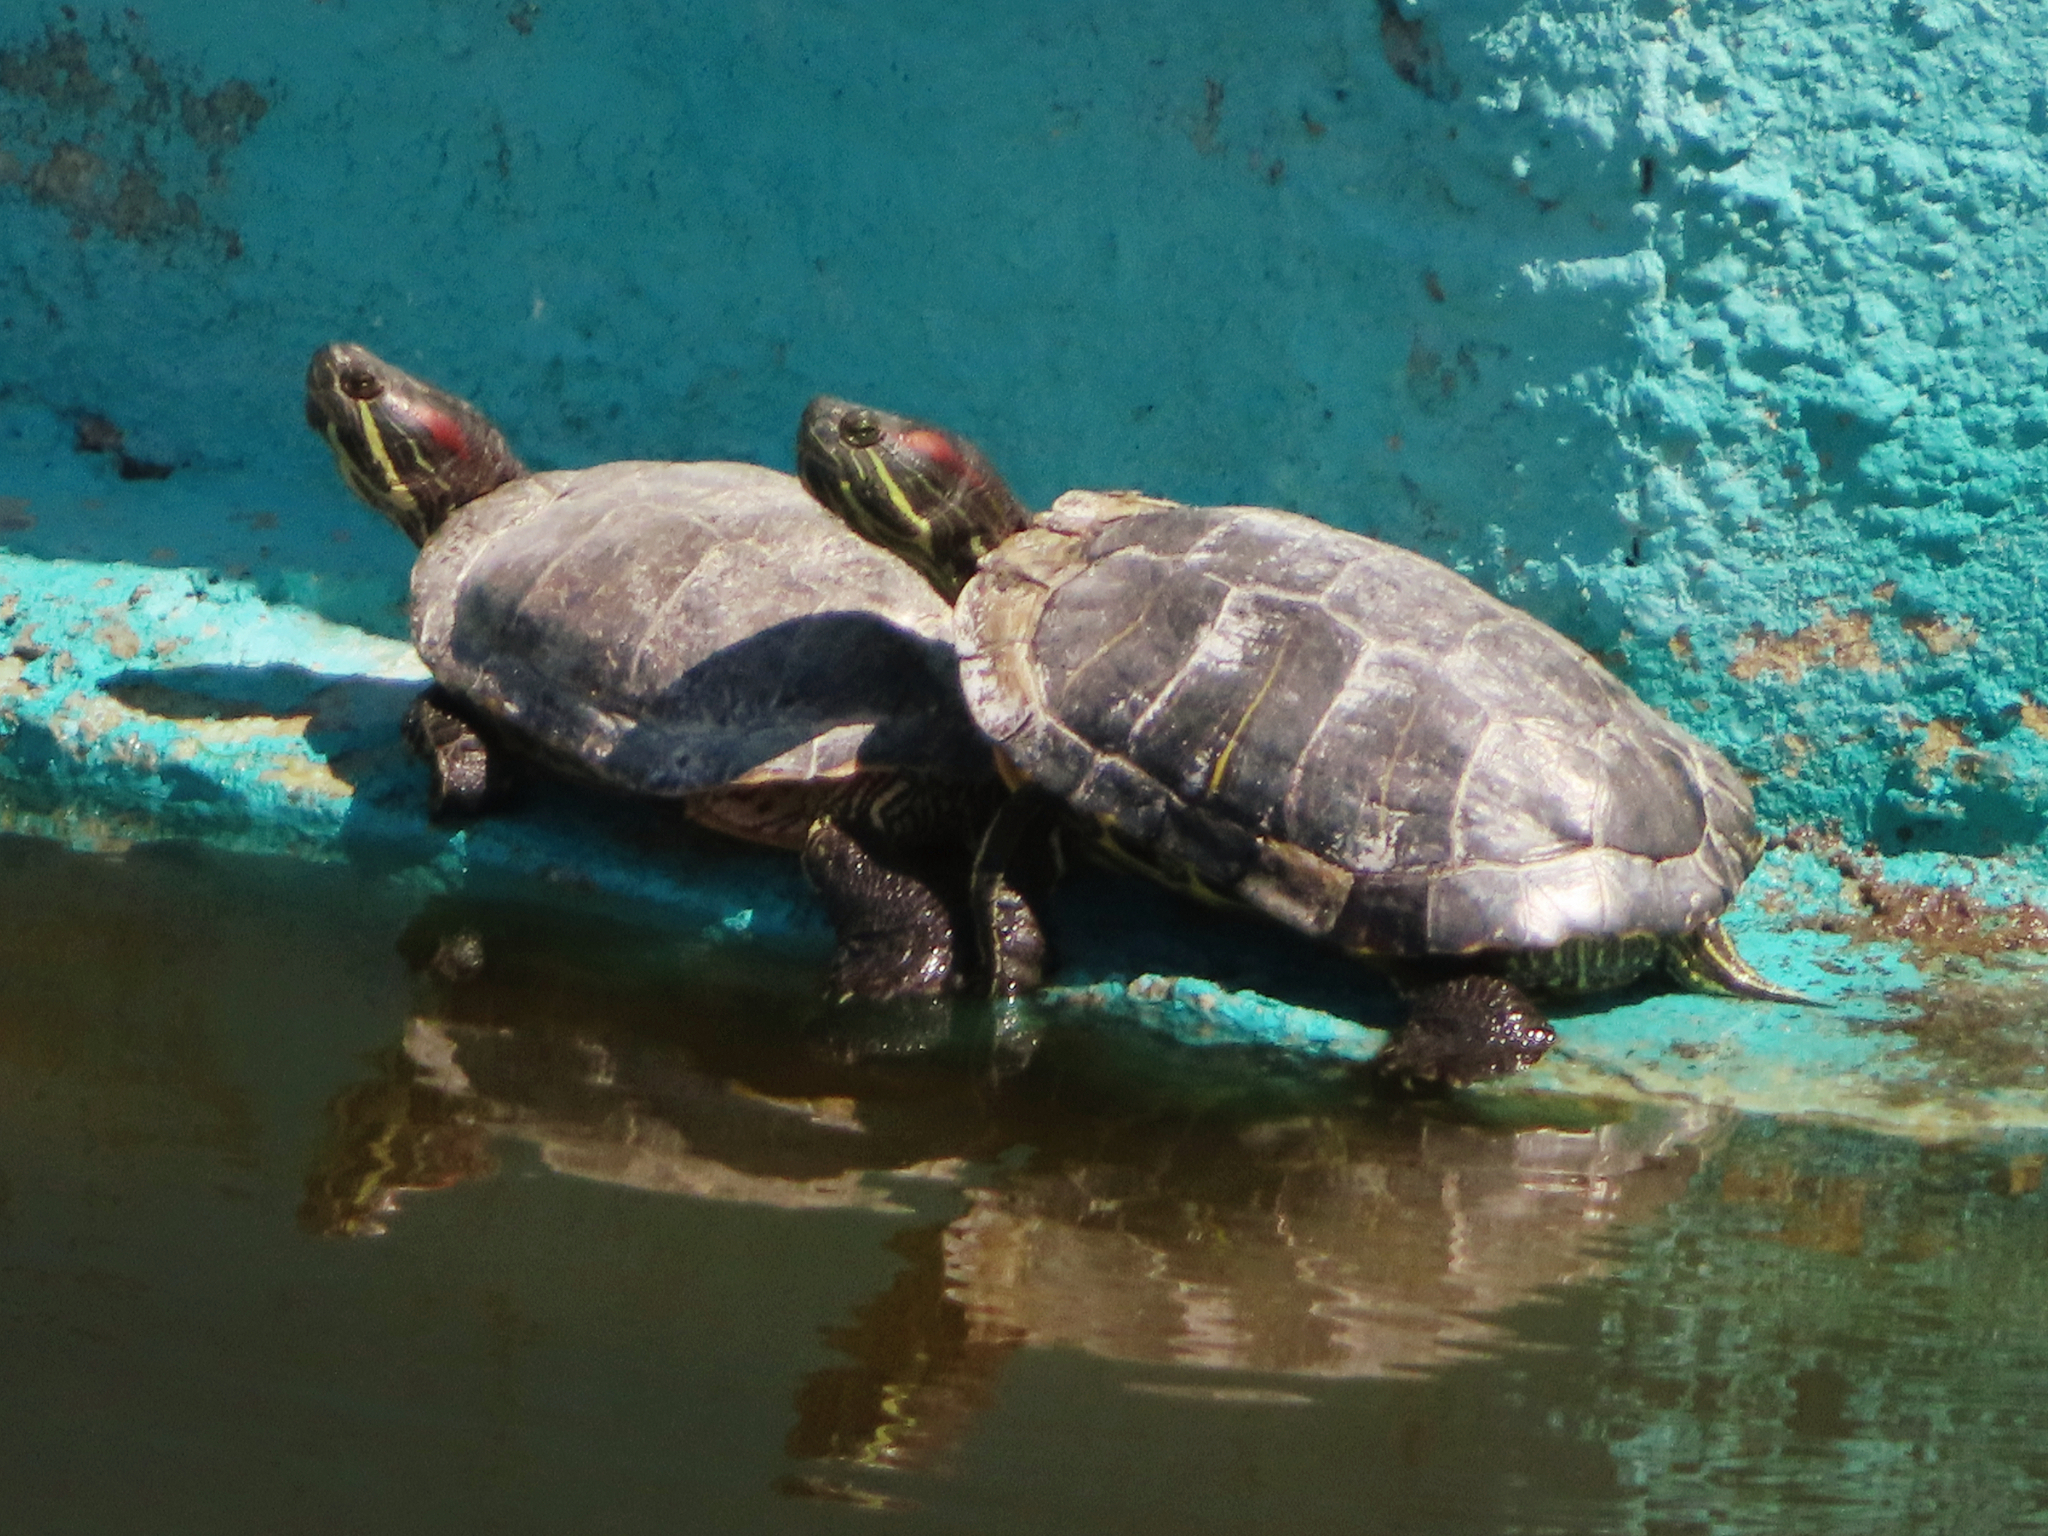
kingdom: Animalia
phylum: Chordata
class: Testudines
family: Emydidae
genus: Trachemys
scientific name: Trachemys scripta
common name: Slider
